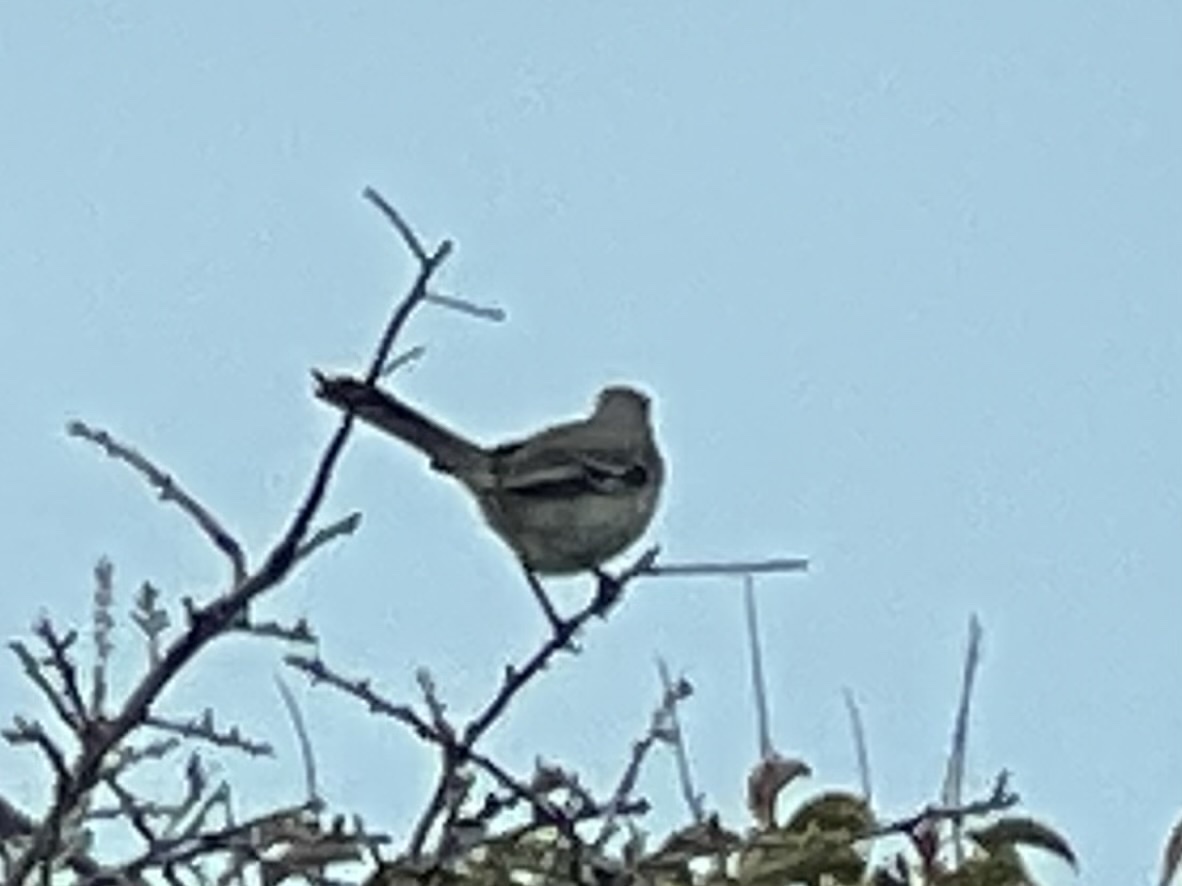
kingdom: Animalia
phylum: Chordata
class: Aves
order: Passeriformes
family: Mimidae
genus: Mimus
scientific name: Mimus polyglottos
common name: Northern mockingbird
